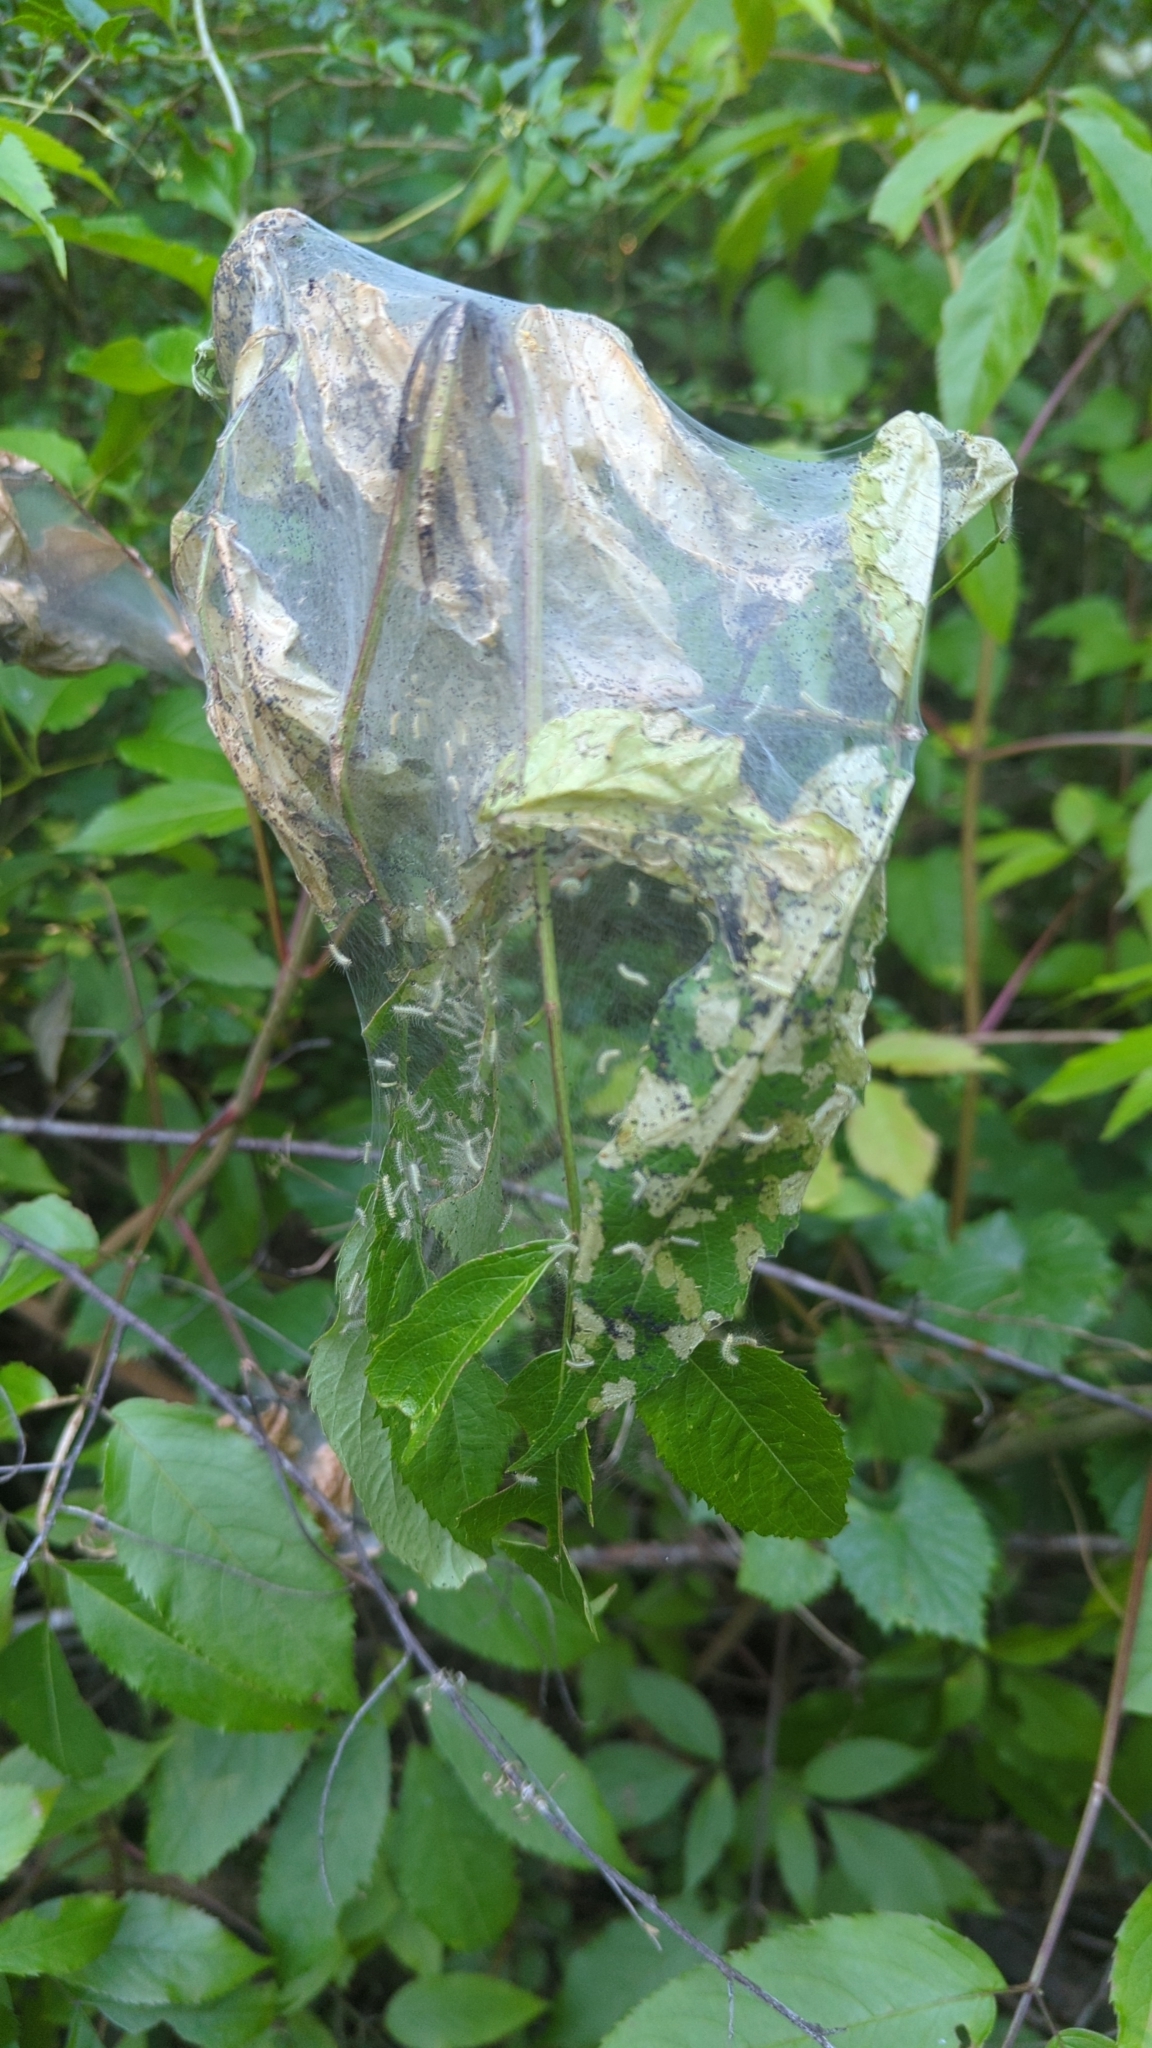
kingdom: Animalia
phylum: Arthropoda
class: Insecta
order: Lepidoptera
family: Erebidae
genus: Hyphantria
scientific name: Hyphantria cunea
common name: American white moth
